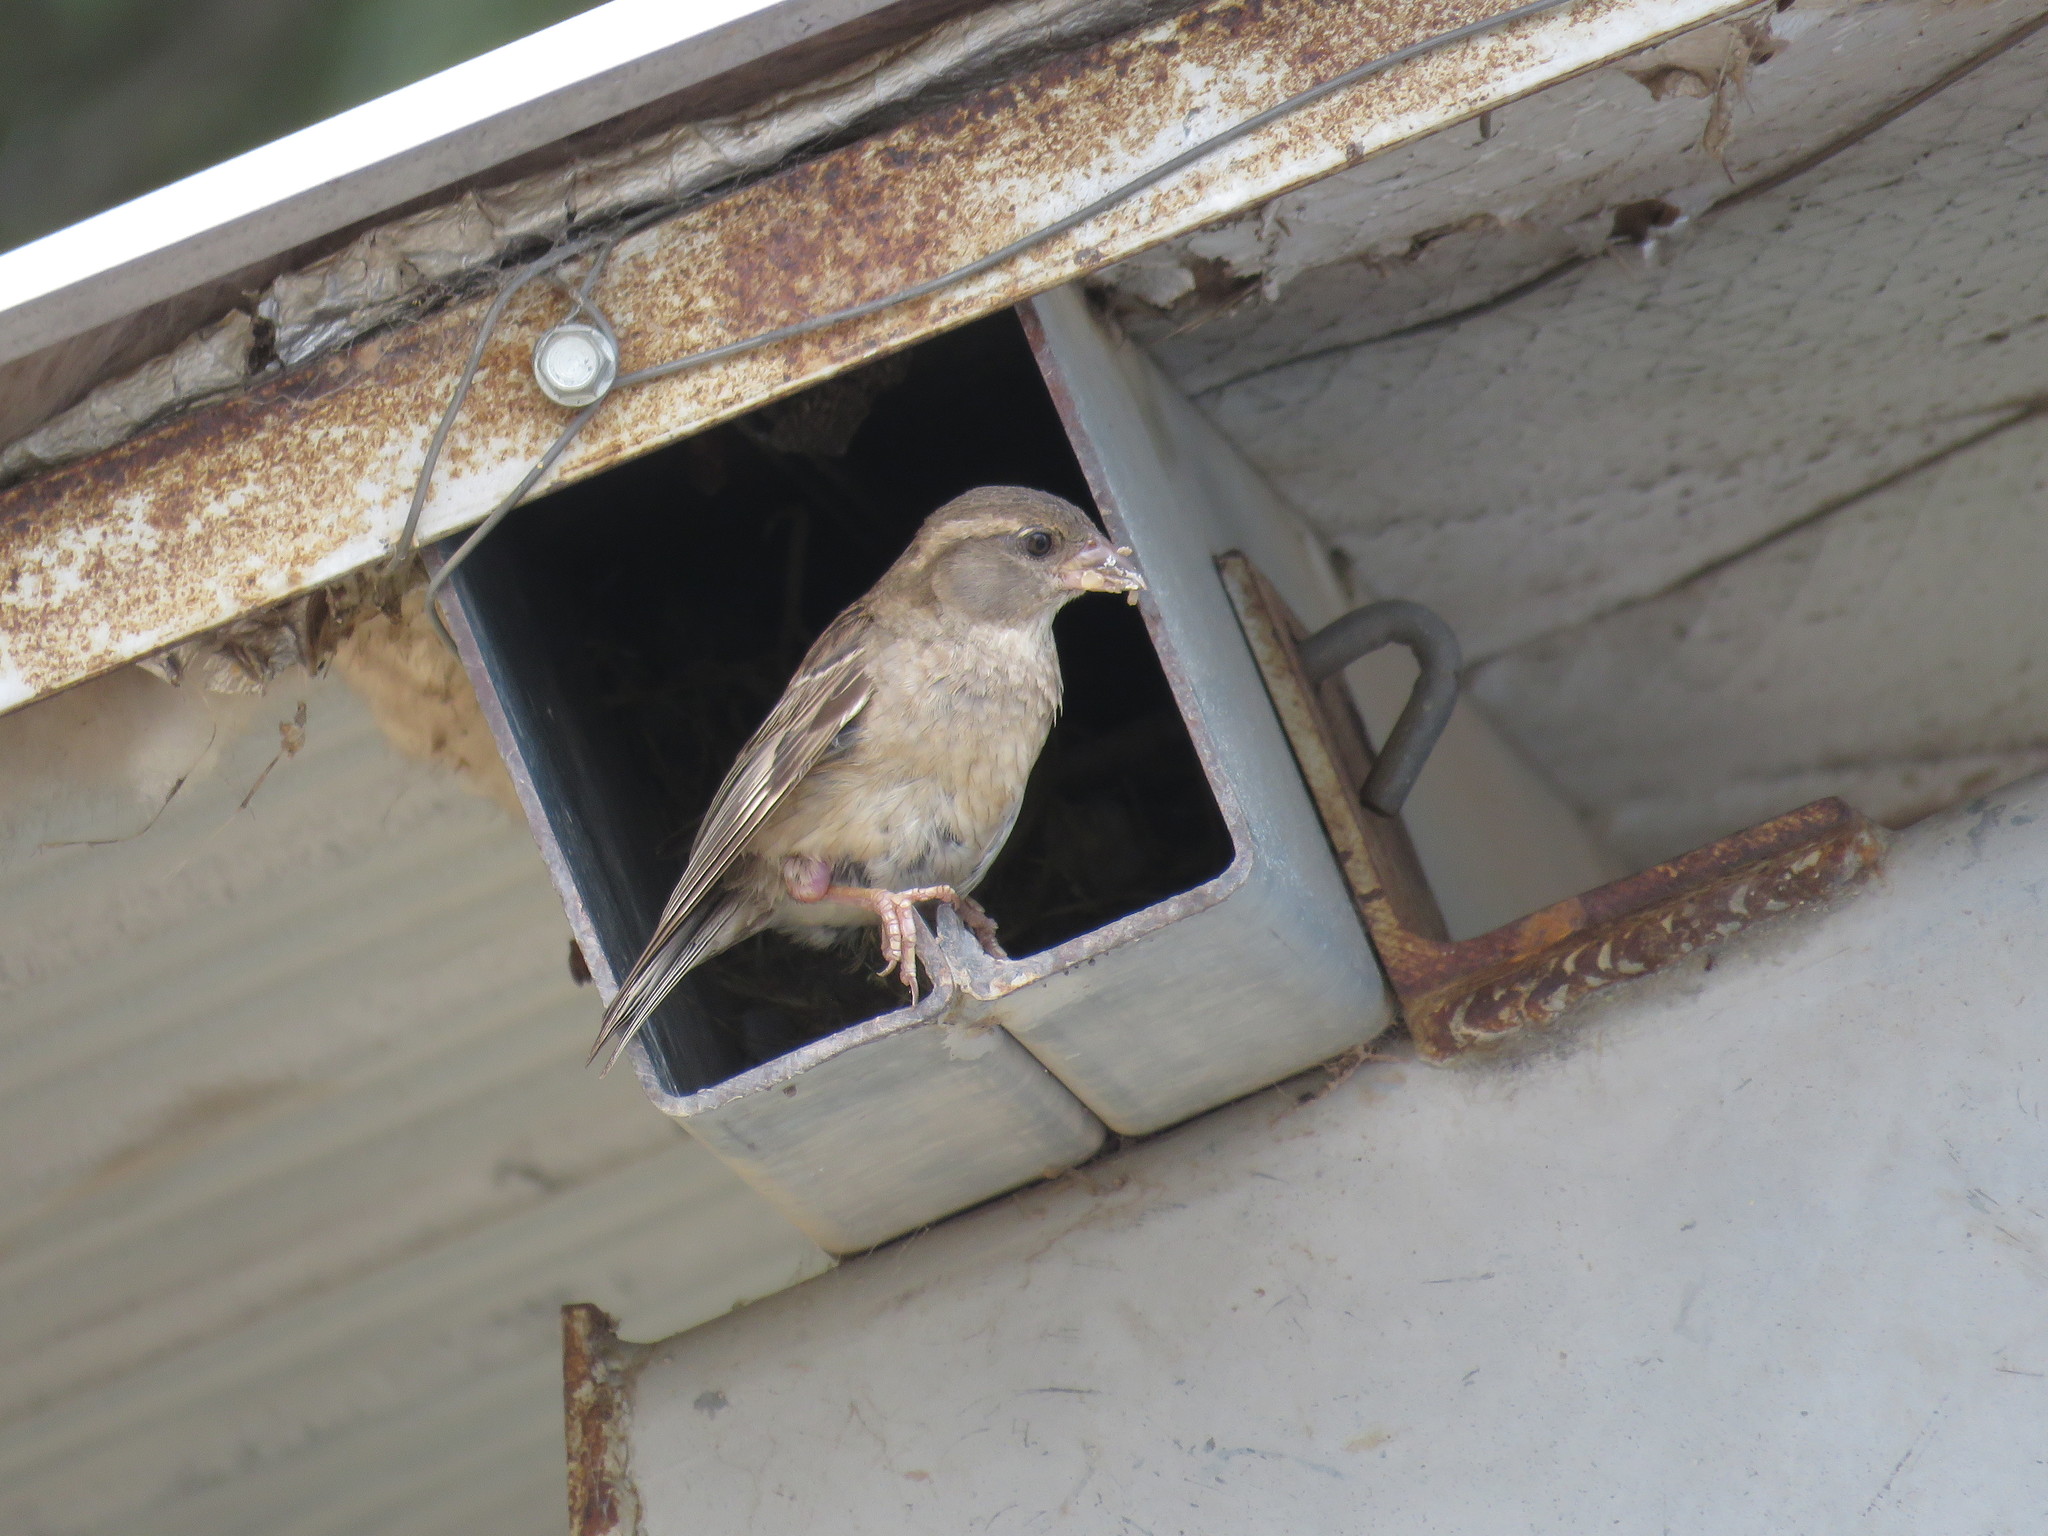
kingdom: Animalia
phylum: Chordata
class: Aves
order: Passeriformes
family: Passeridae
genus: Passer
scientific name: Passer domesticus
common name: House sparrow
